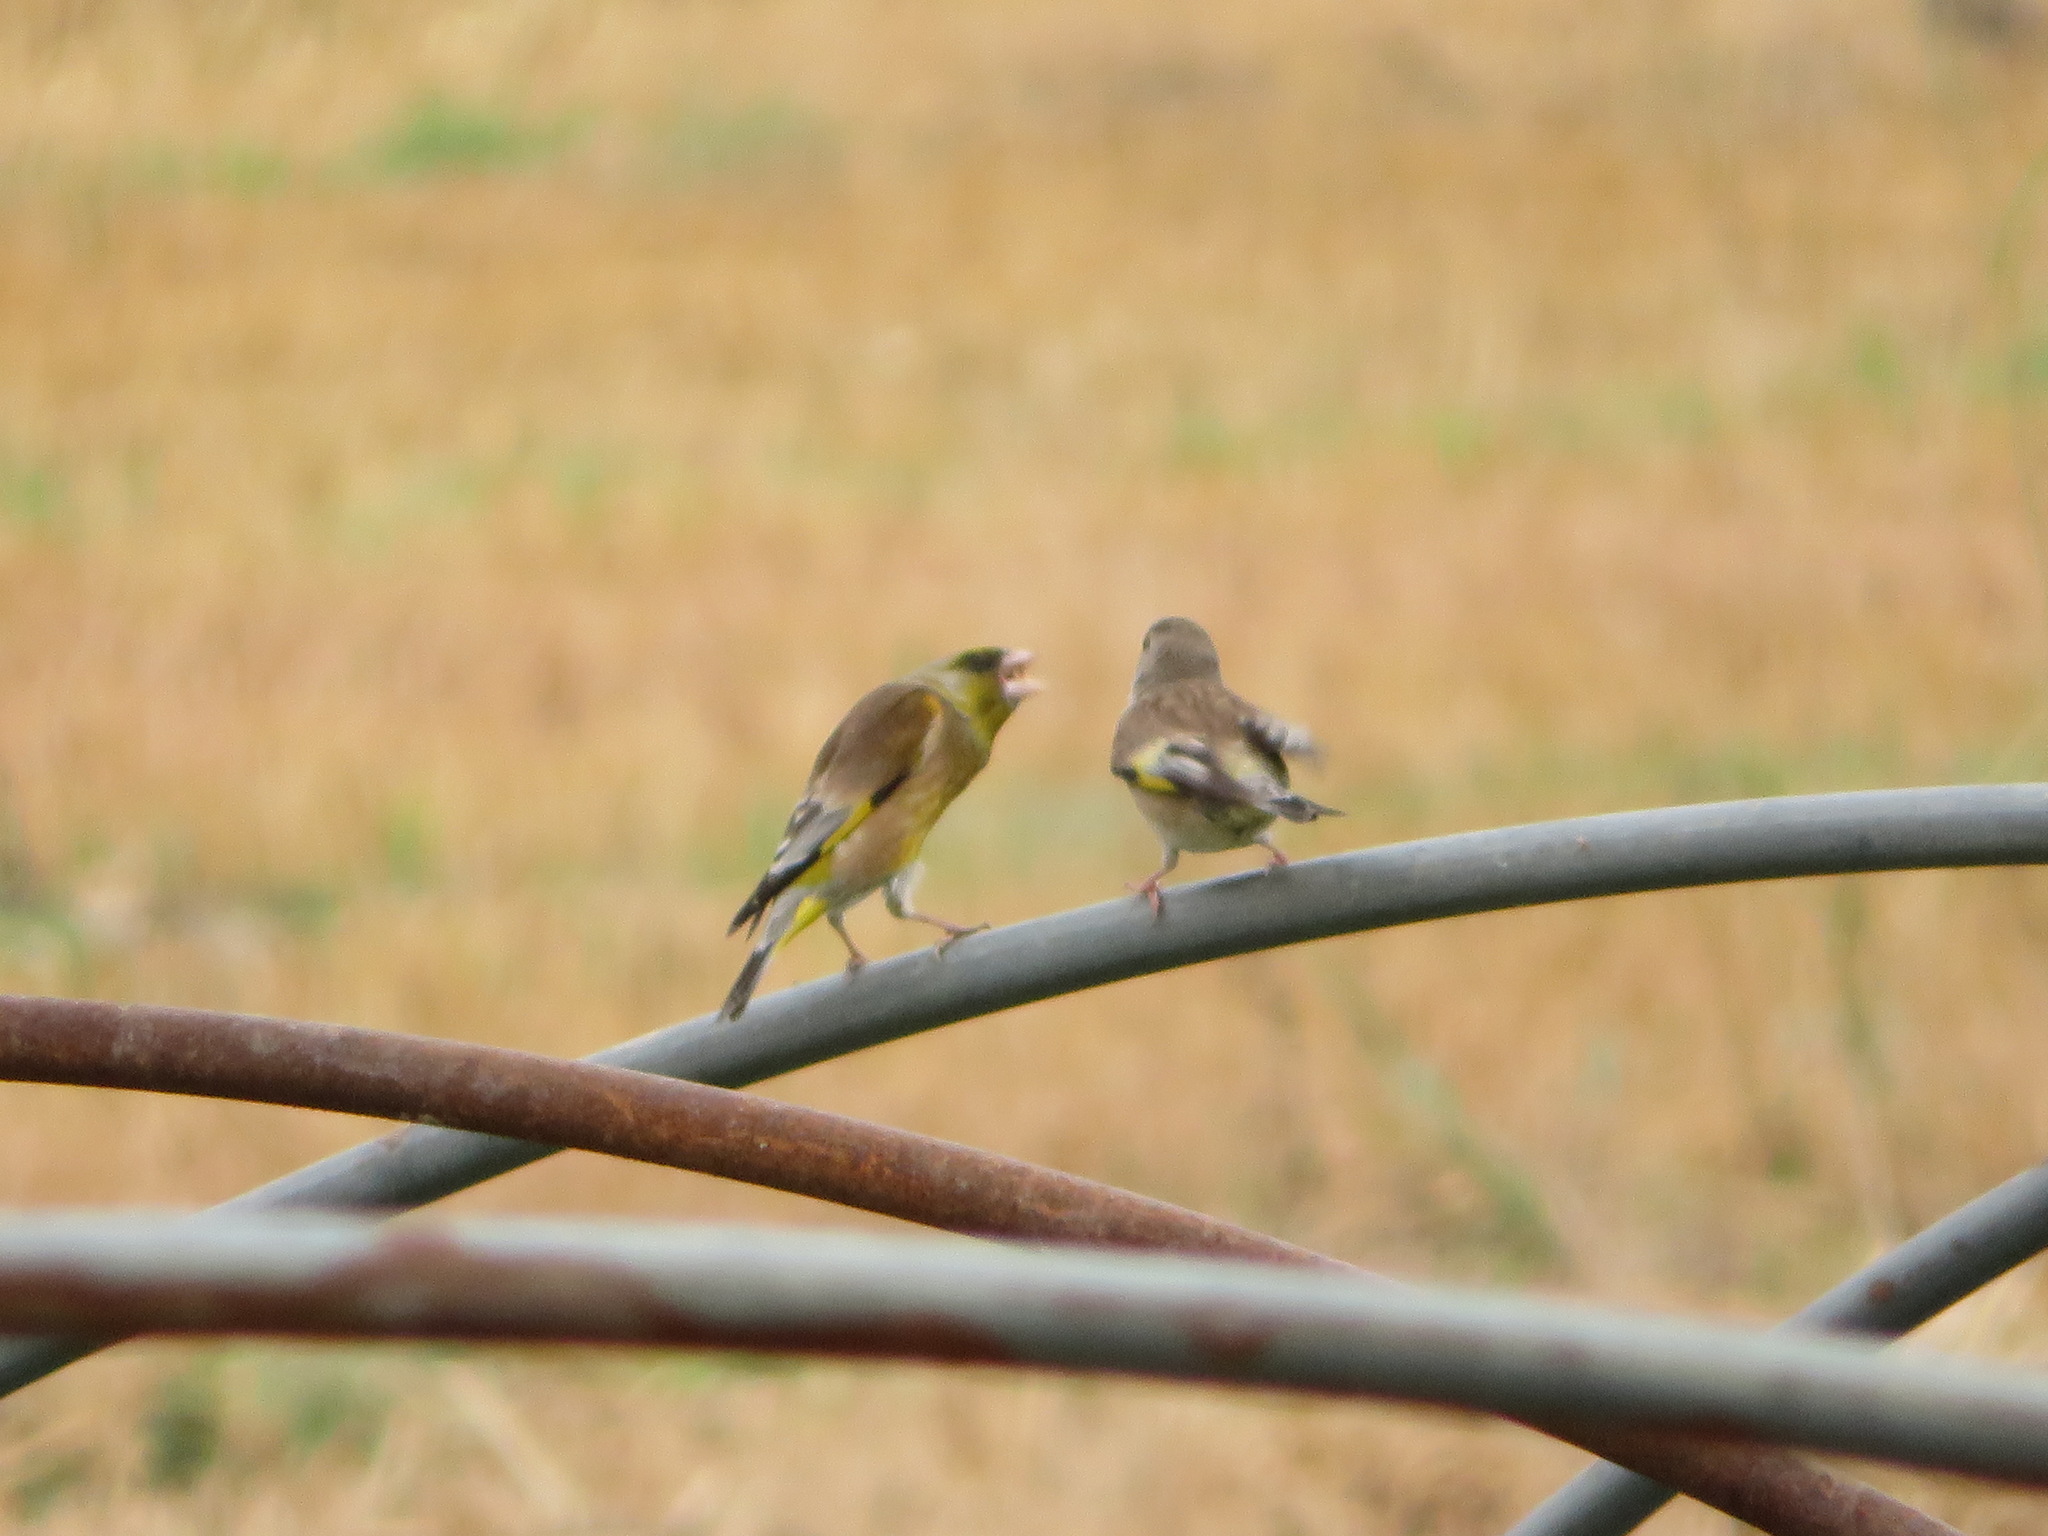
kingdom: Plantae
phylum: Tracheophyta
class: Liliopsida
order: Poales
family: Poaceae
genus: Chloris
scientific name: Chloris sinica
